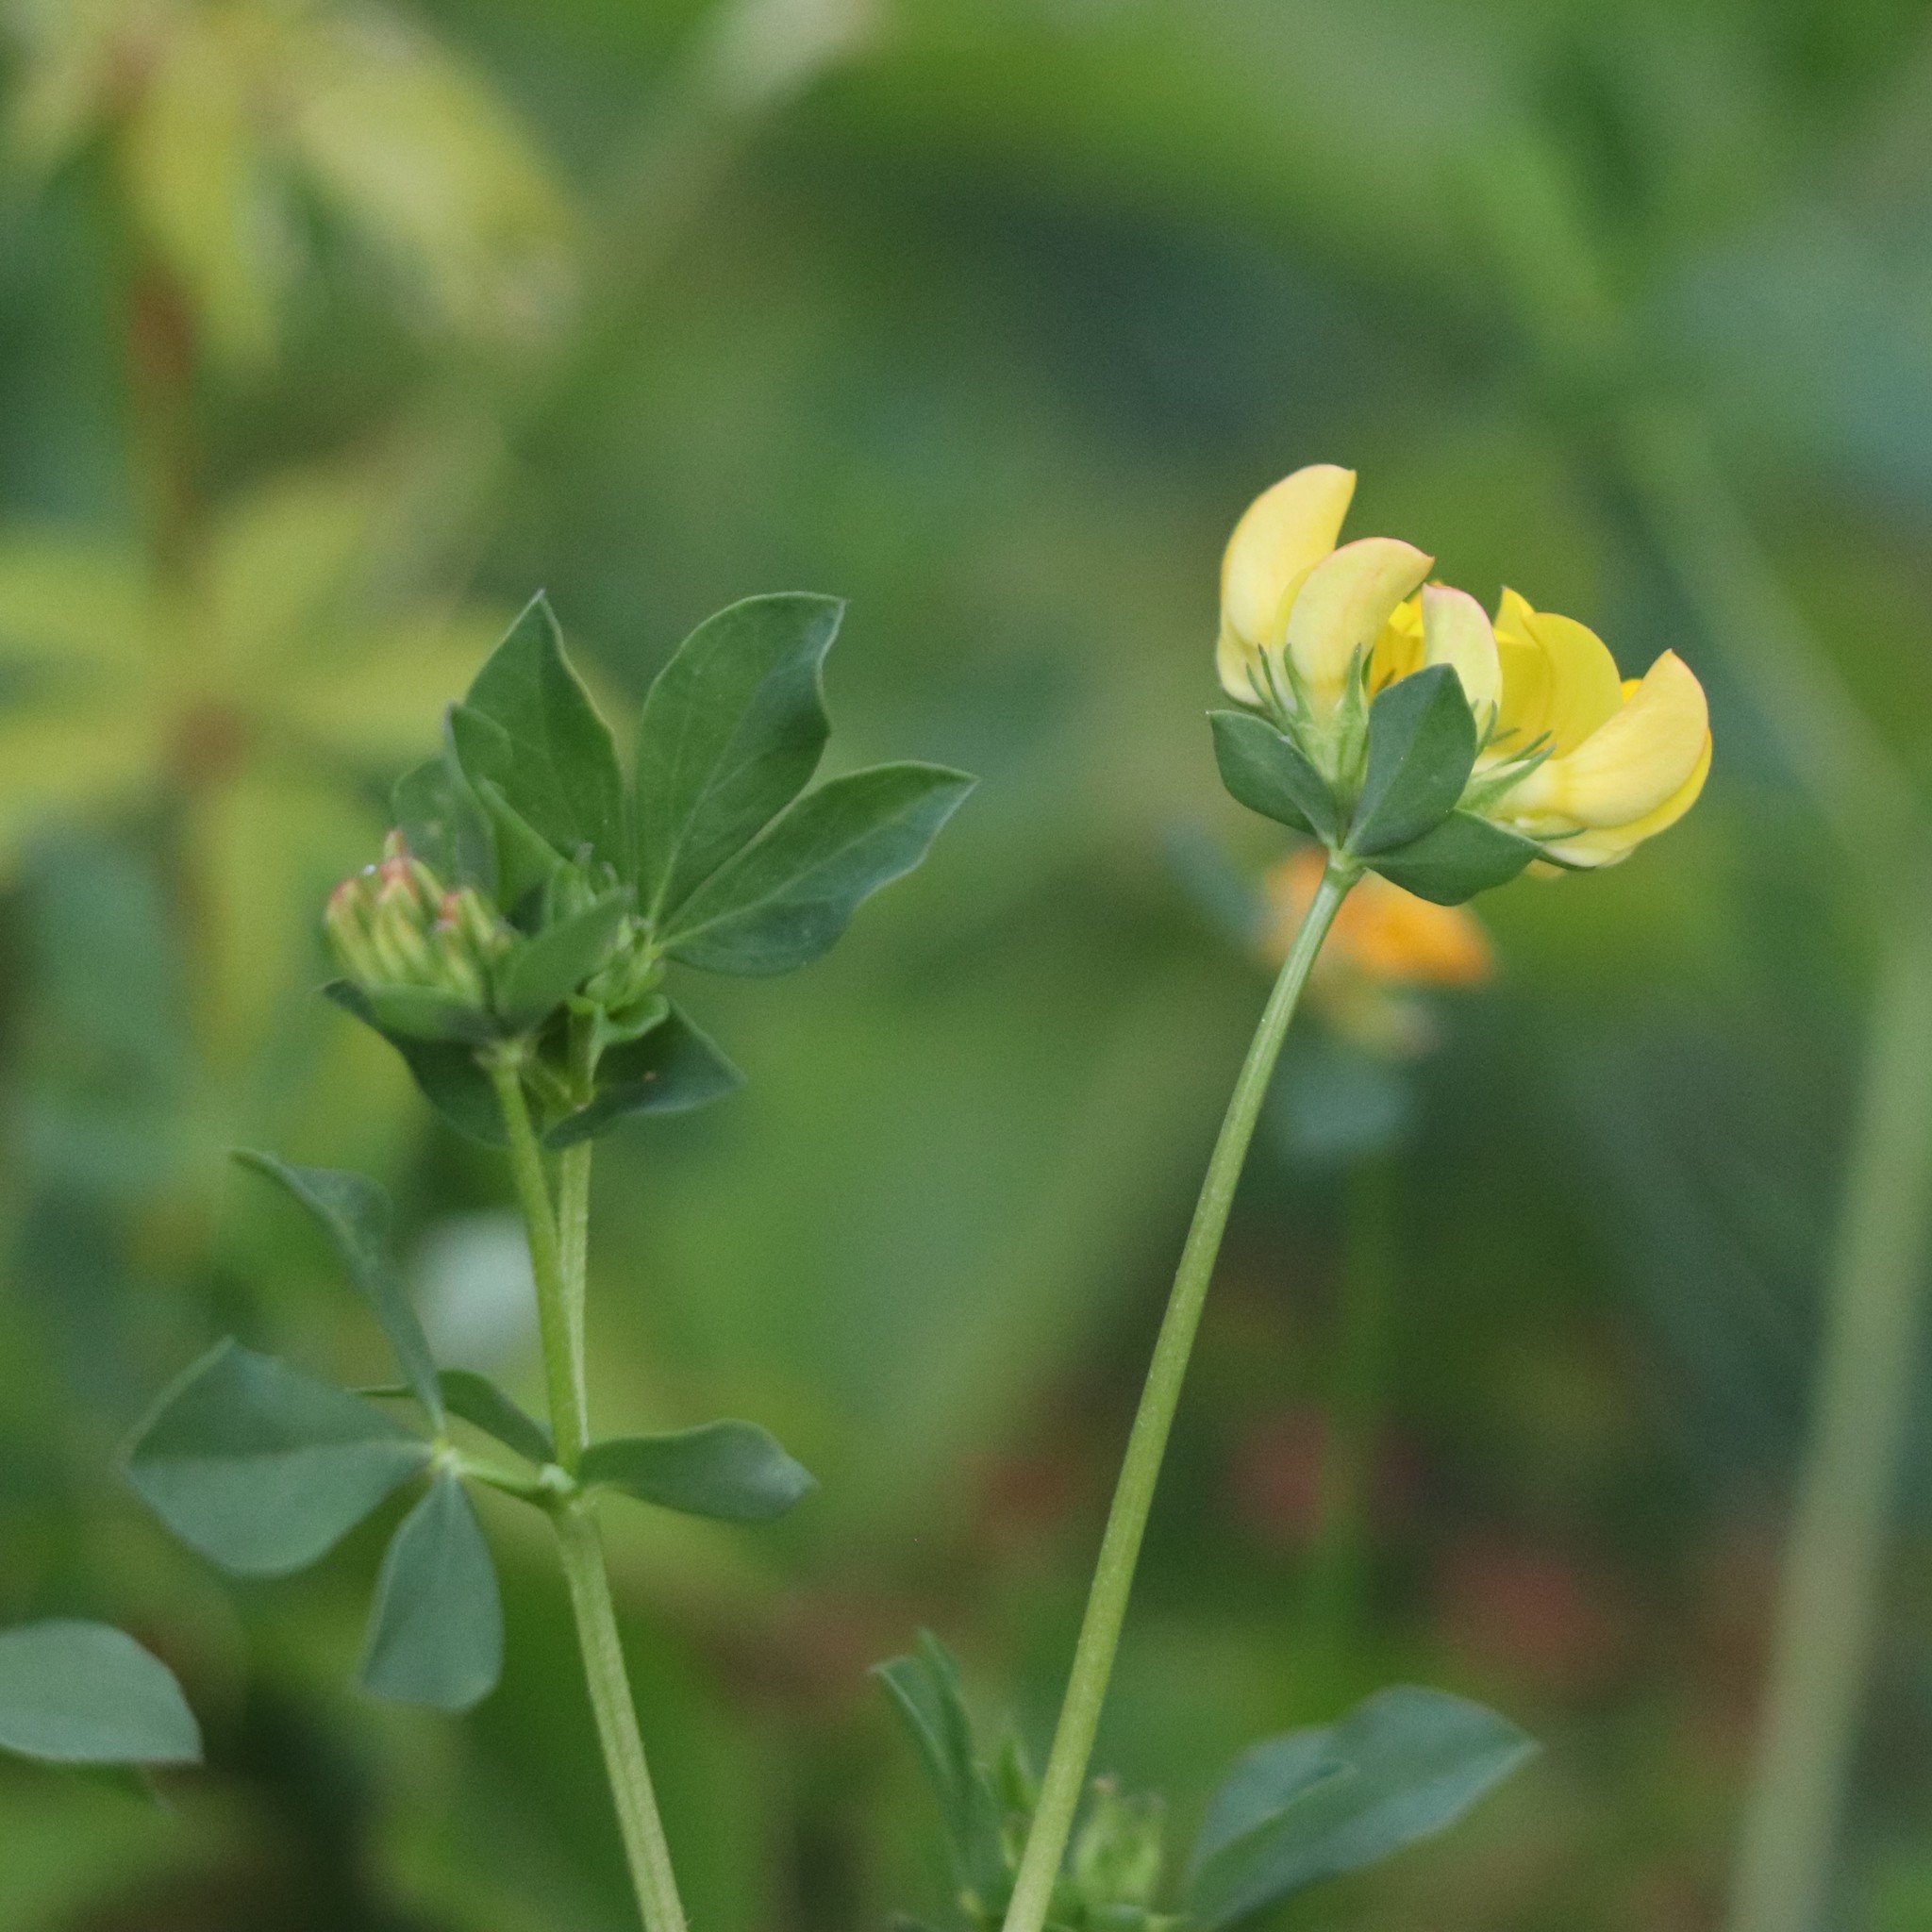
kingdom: Plantae
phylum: Tracheophyta
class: Magnoliopsida
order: Fabales
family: Fabaceae
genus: Lotus
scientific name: Lotus corniculatus
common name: Common bird's-foot-trefoil
